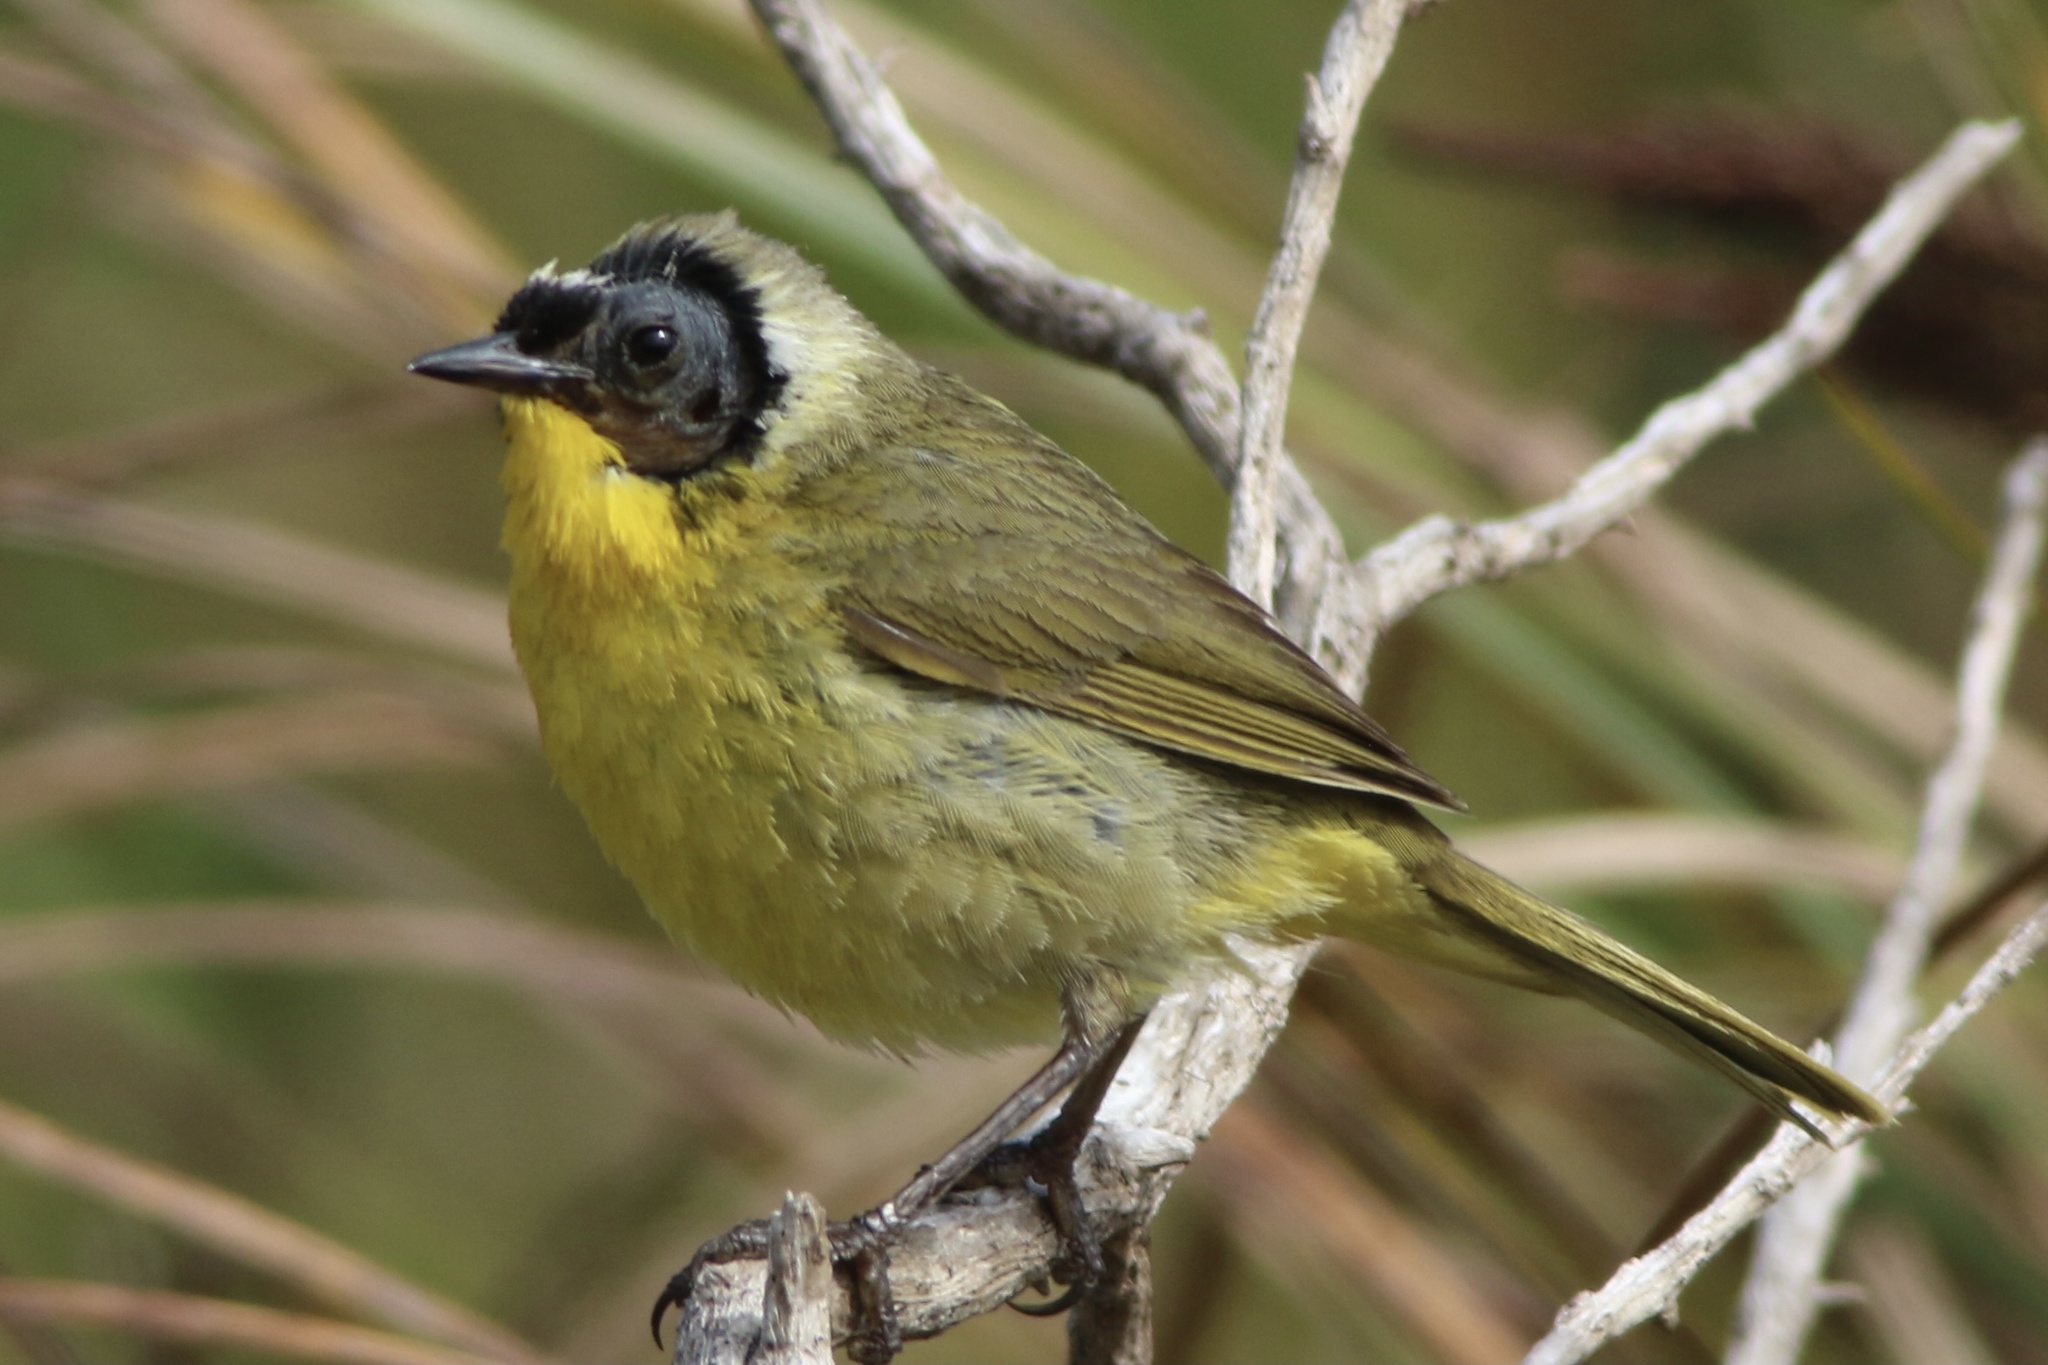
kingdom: Animalia
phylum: Chordata
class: Aves
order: Passeriformes
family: Parulidae
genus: Geothlypis
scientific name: Geothlypis trichas
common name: Common yellowthroat
